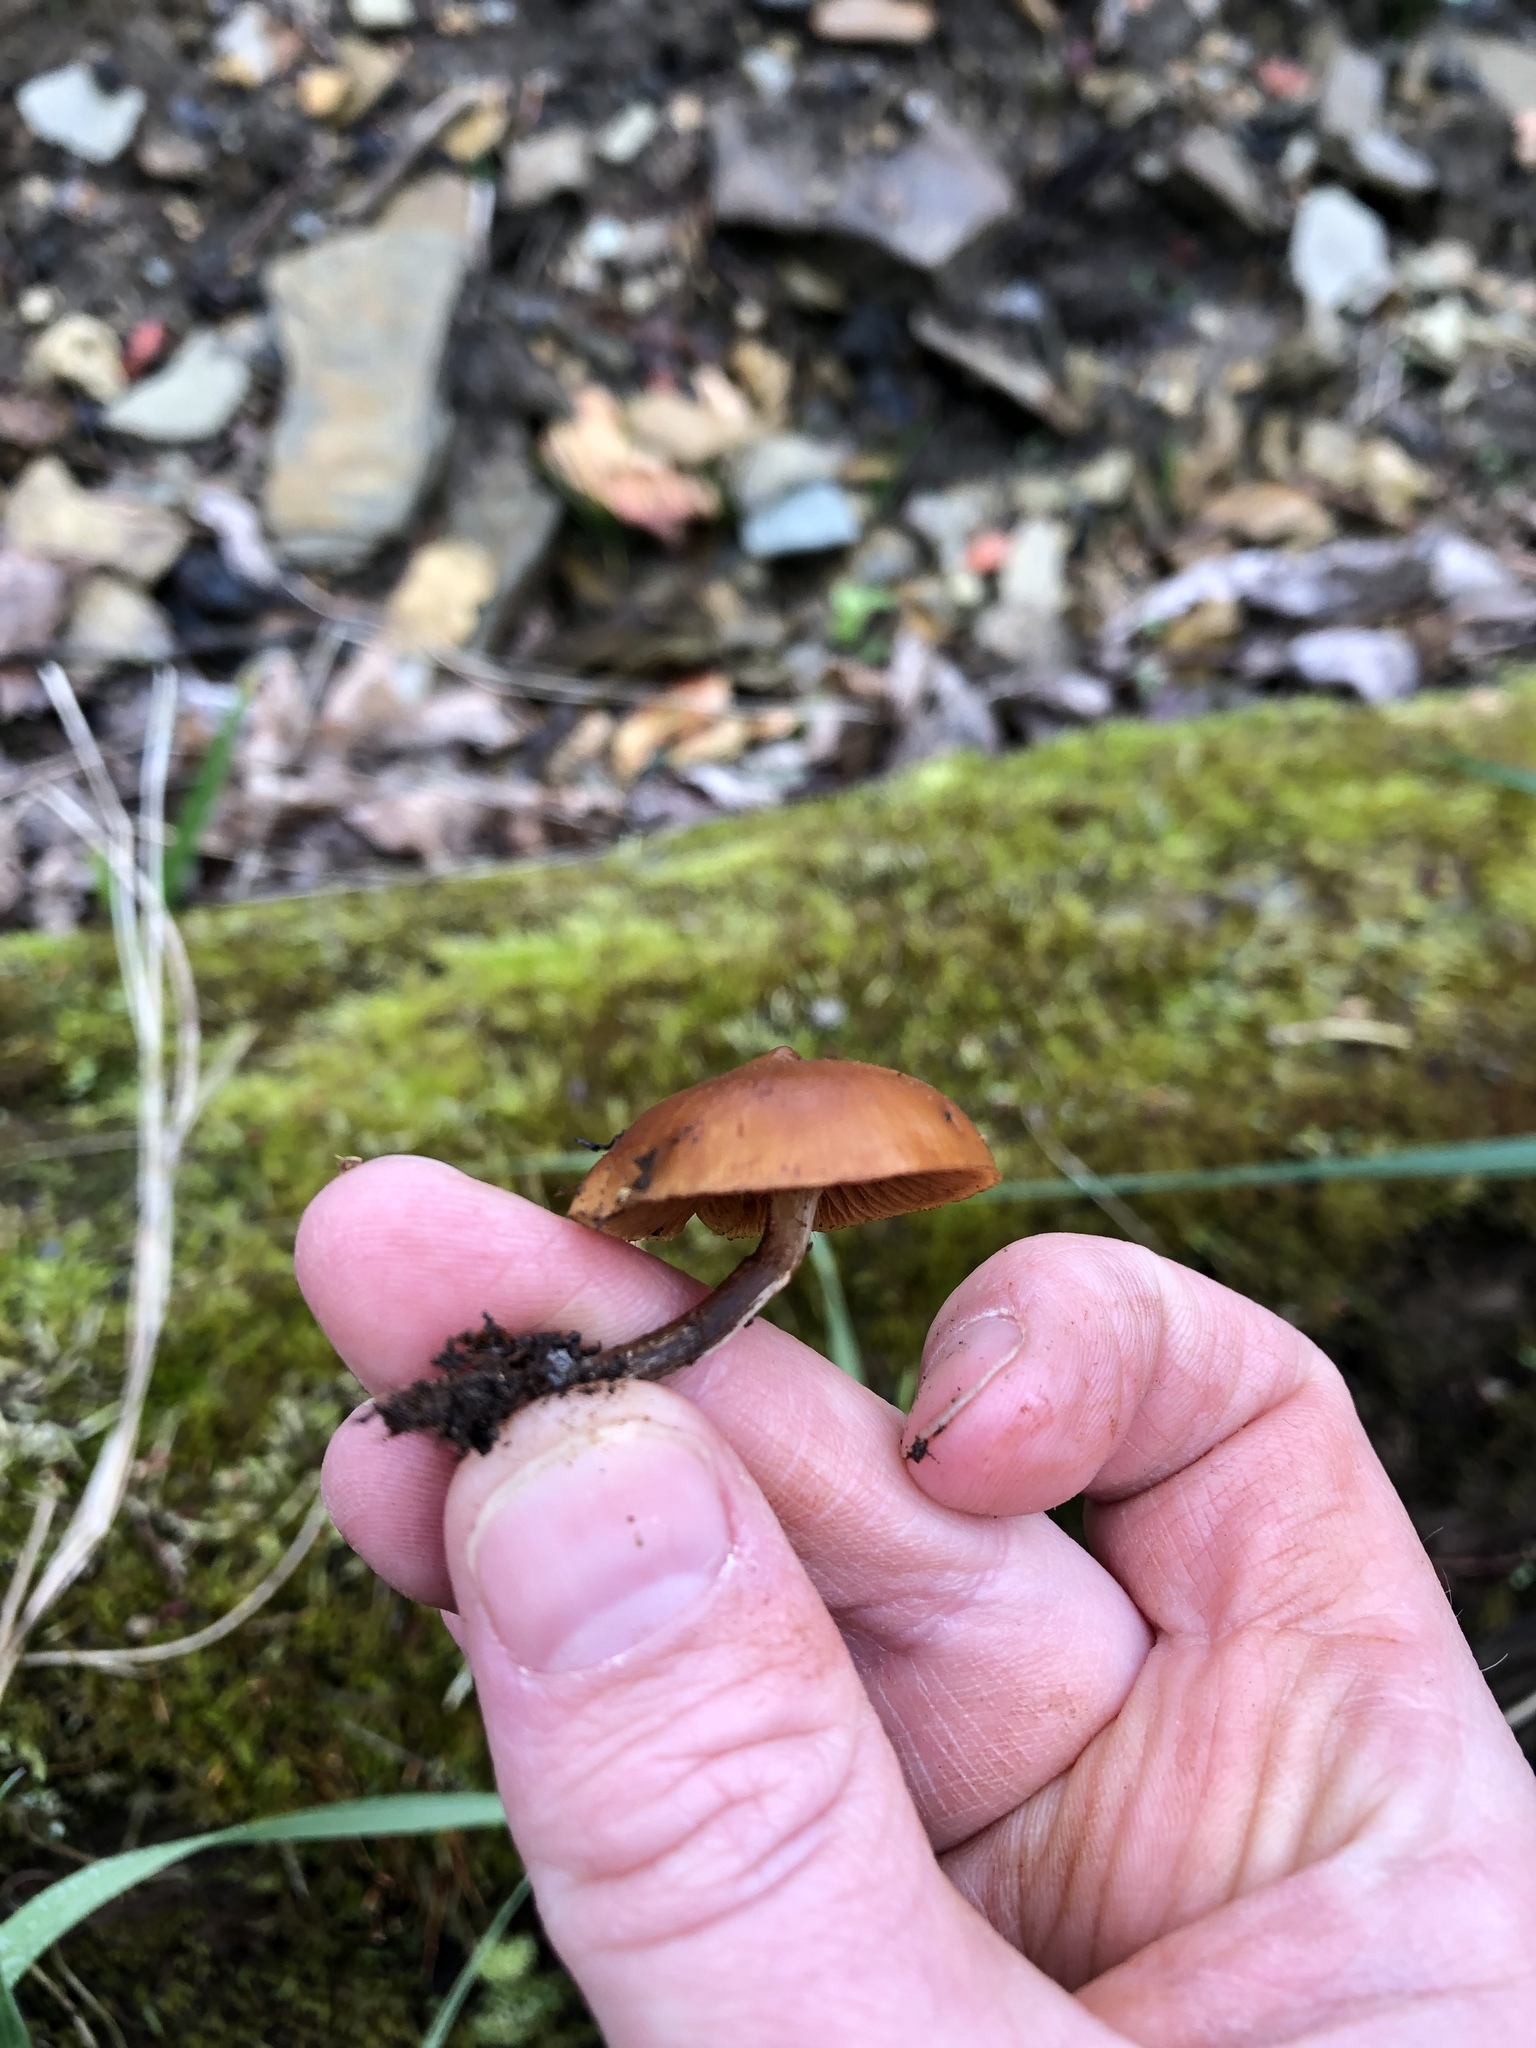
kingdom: Fungi
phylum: Basidiomycota
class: Agaricomycetes
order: Agaricales
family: Hymenogastraceae
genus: Galerina
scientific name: Galerina marginata
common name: Funeral bell
